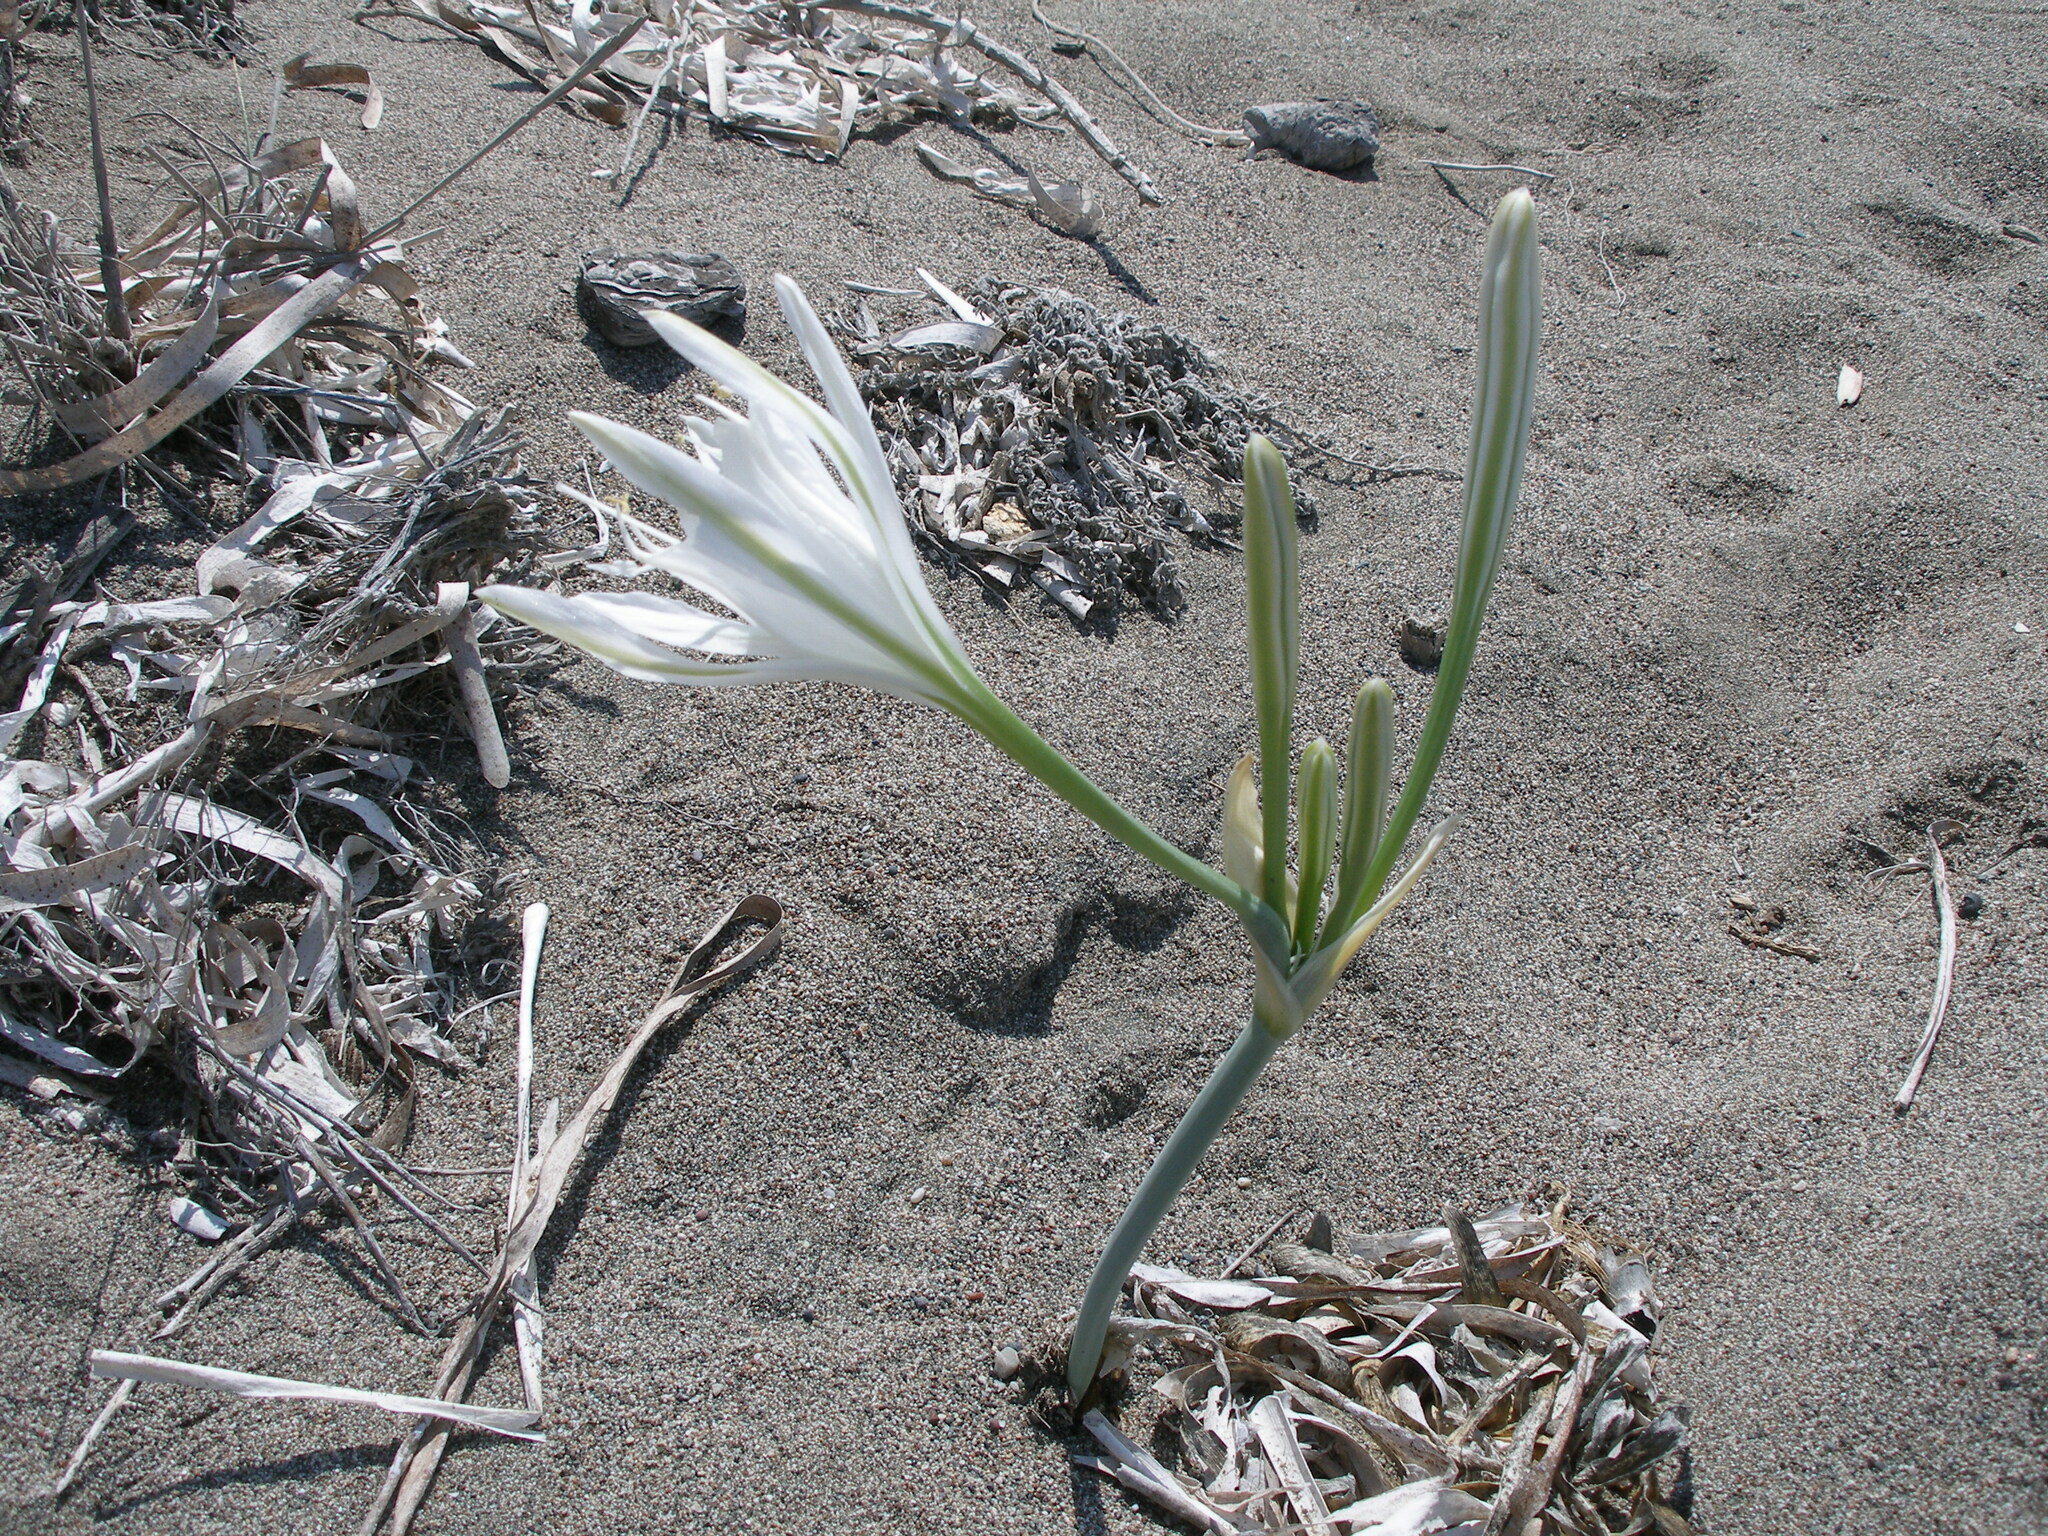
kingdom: Plantae
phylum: Tracheophyta
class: Liliopsida
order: Asparagales
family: Amaryllidaceae
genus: Pancratium
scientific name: Pancratium maritimum
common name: Sea-daffodil
